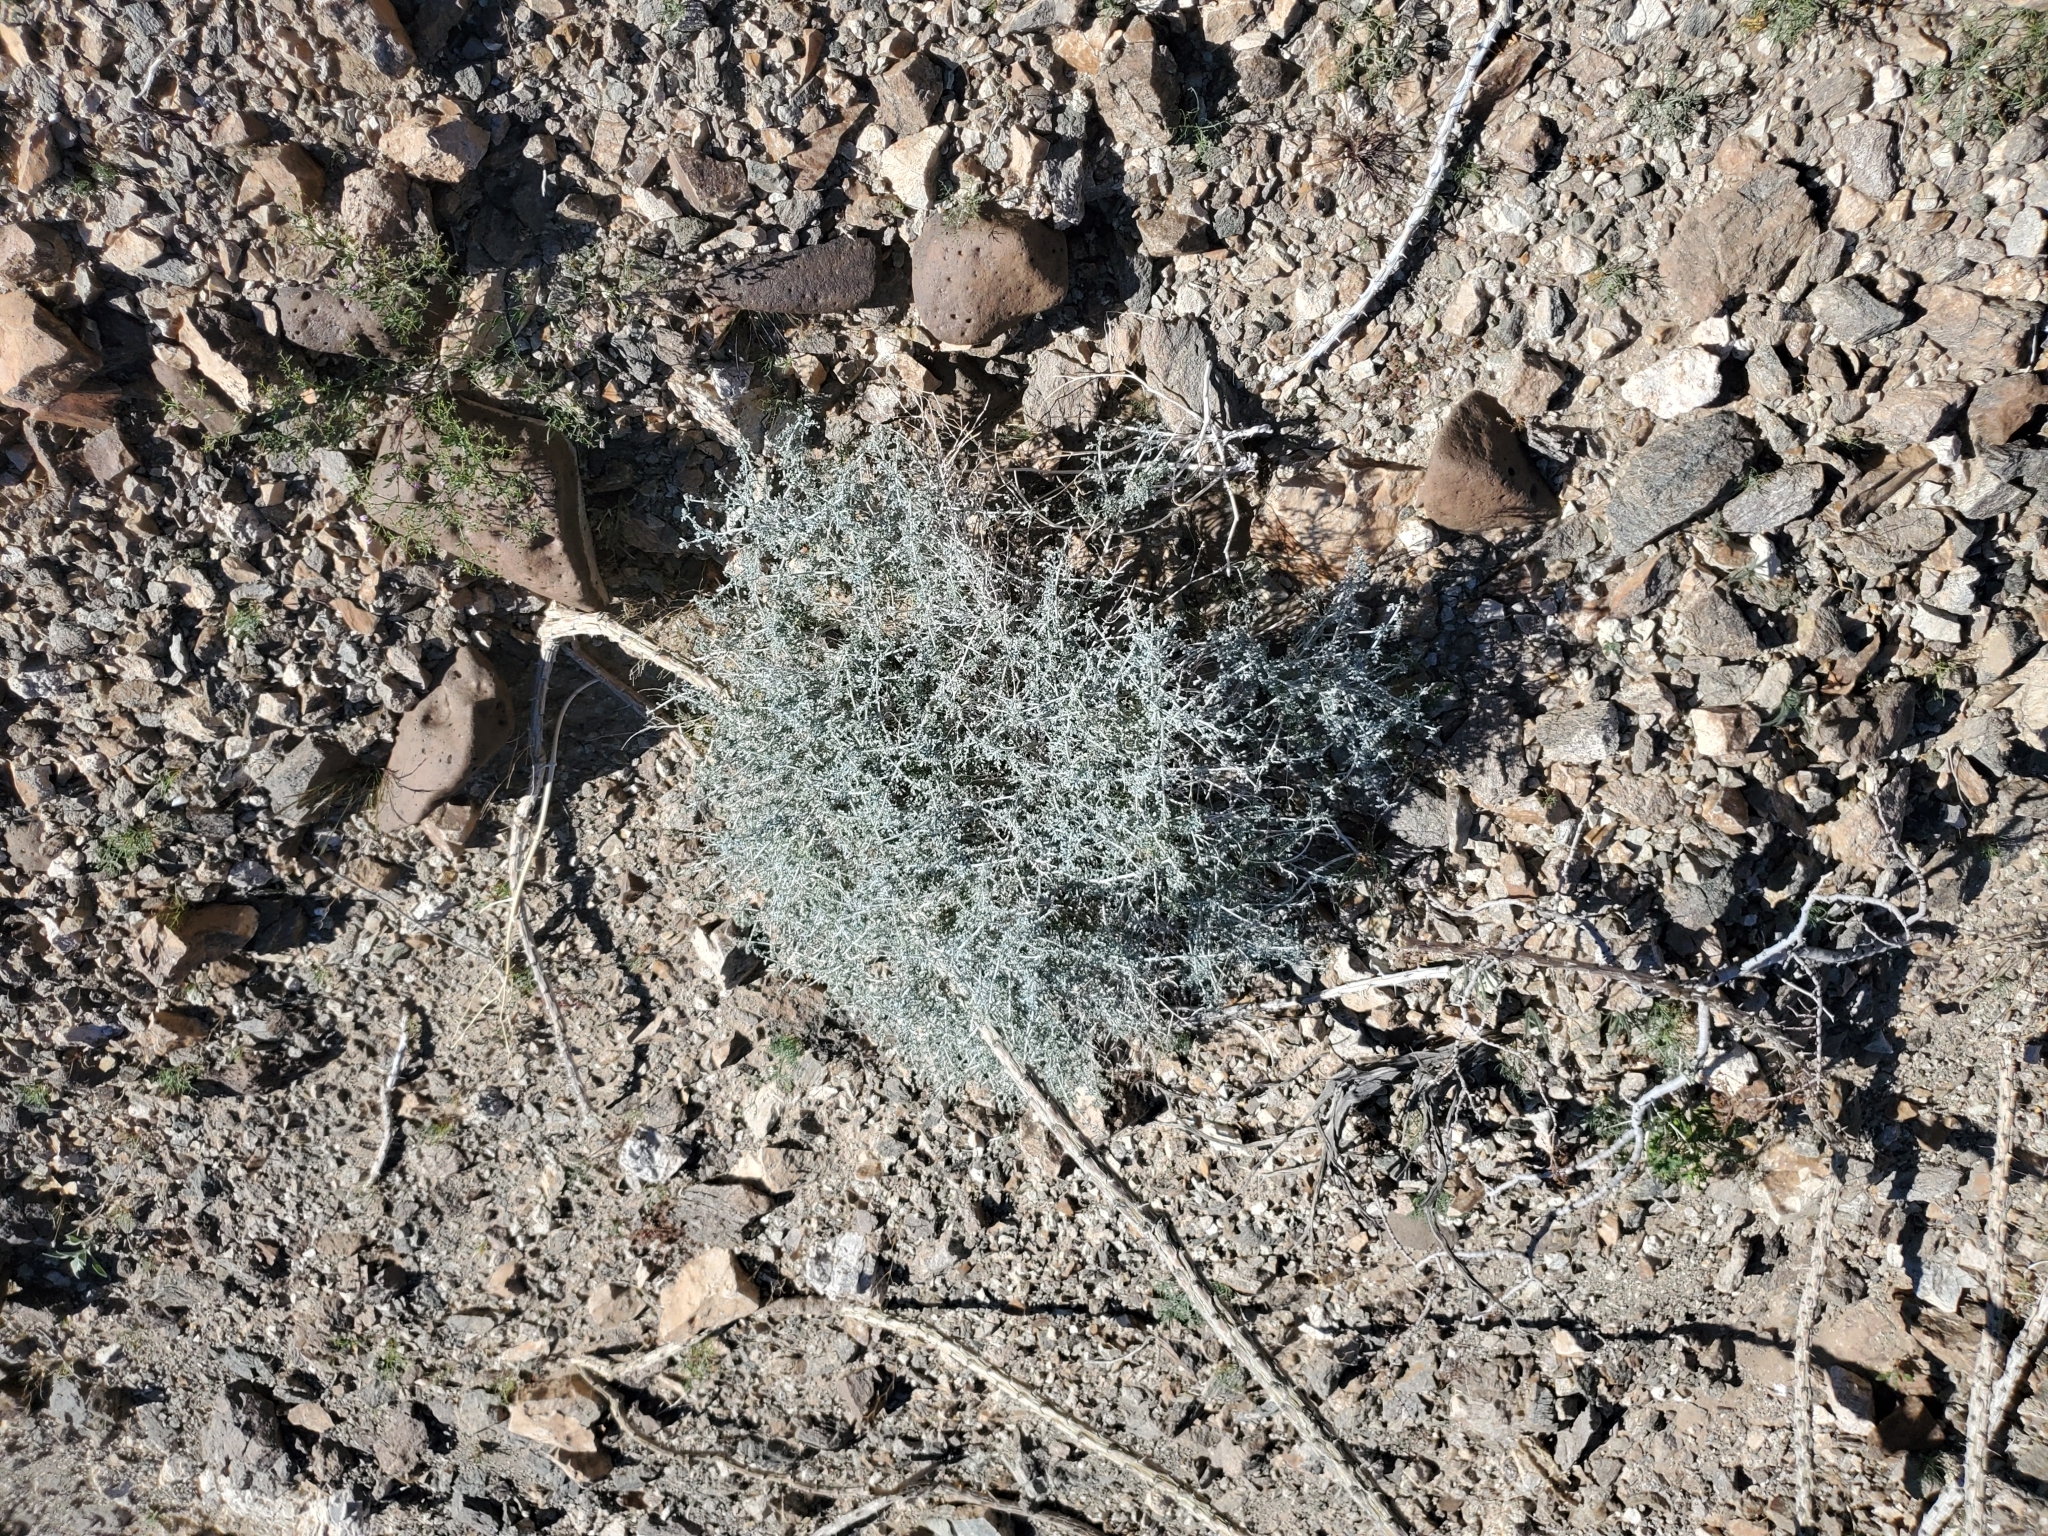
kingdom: Plantae
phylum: Tracheophyta
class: Magnoliopsida
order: Asterales
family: Asteraceae
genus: Ambrosia
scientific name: Ambrosia dumosa
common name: Bur-sage
